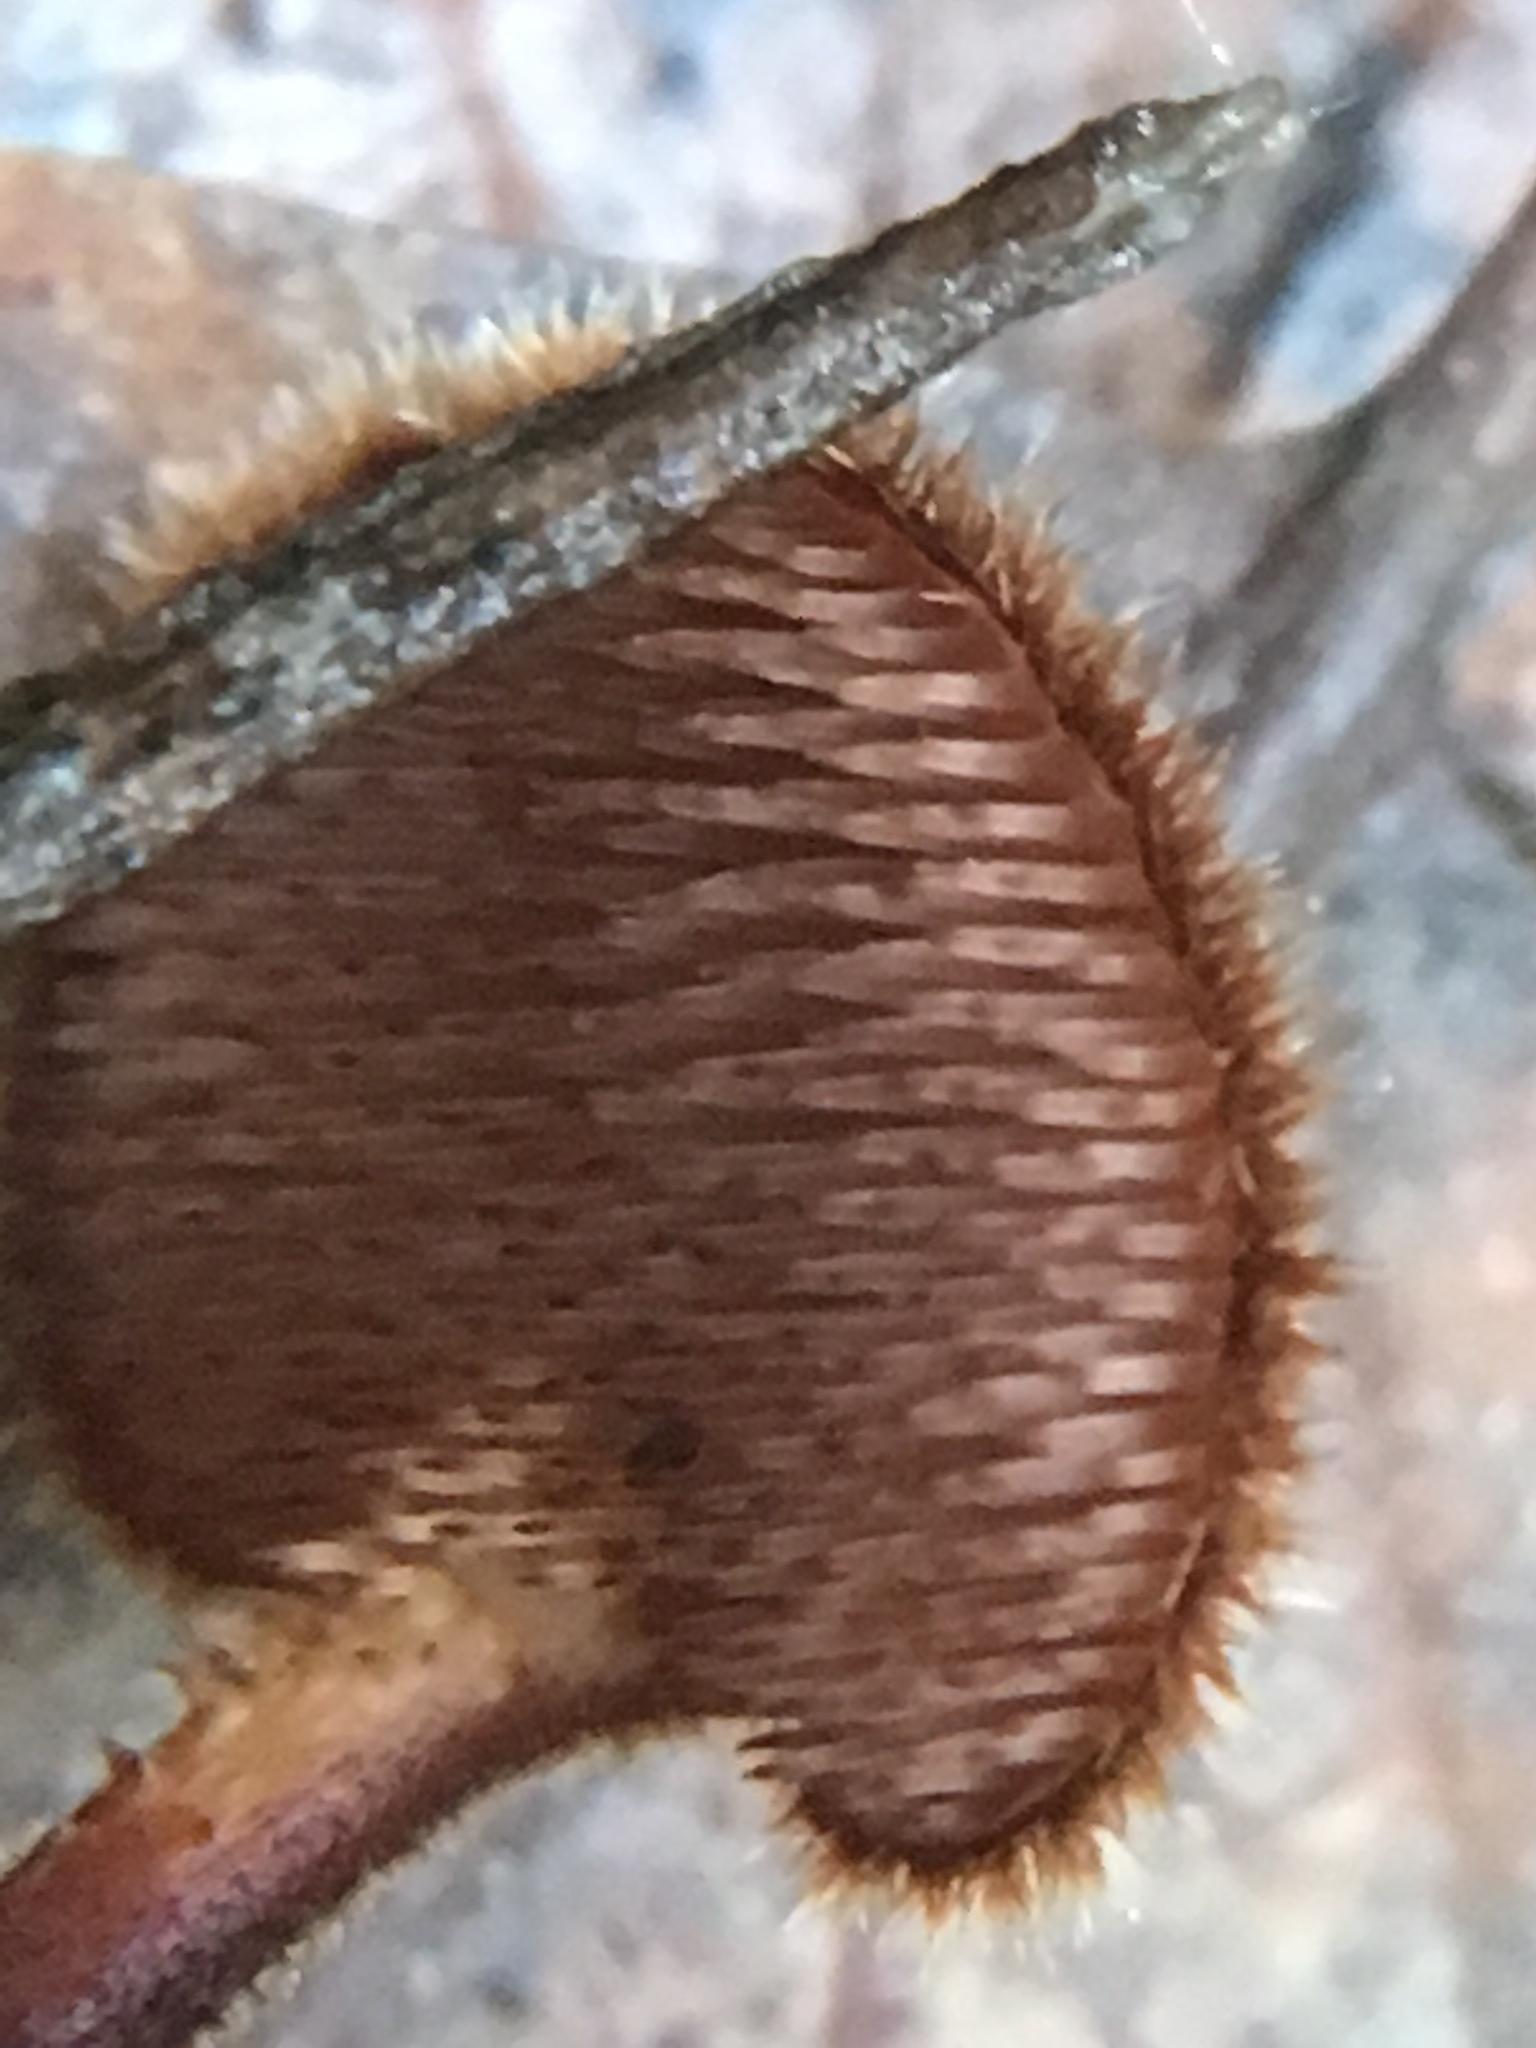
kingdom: Fungi
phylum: Basidiomycota
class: Agaricomycetes
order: Russulales
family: Auriscalpiaceae
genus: Auriscalpium
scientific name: Auriscalpium vulgare
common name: Earpick fungus
